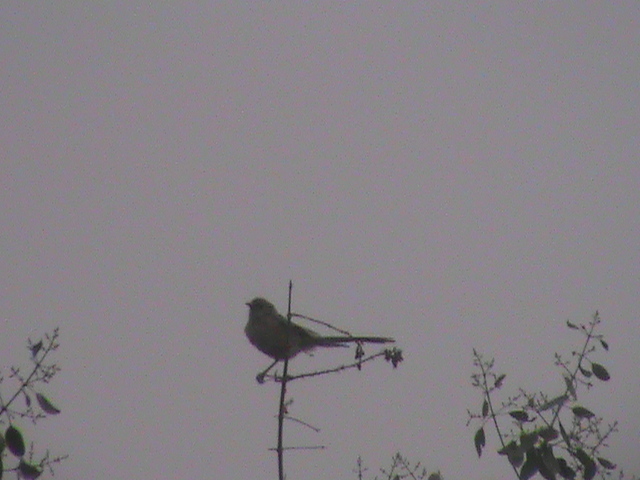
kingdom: Animalia
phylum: Chordata
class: Aves
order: Passeriformes
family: Cisticolidae
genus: Prinia
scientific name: Prinia inornata
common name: Plain prinia
